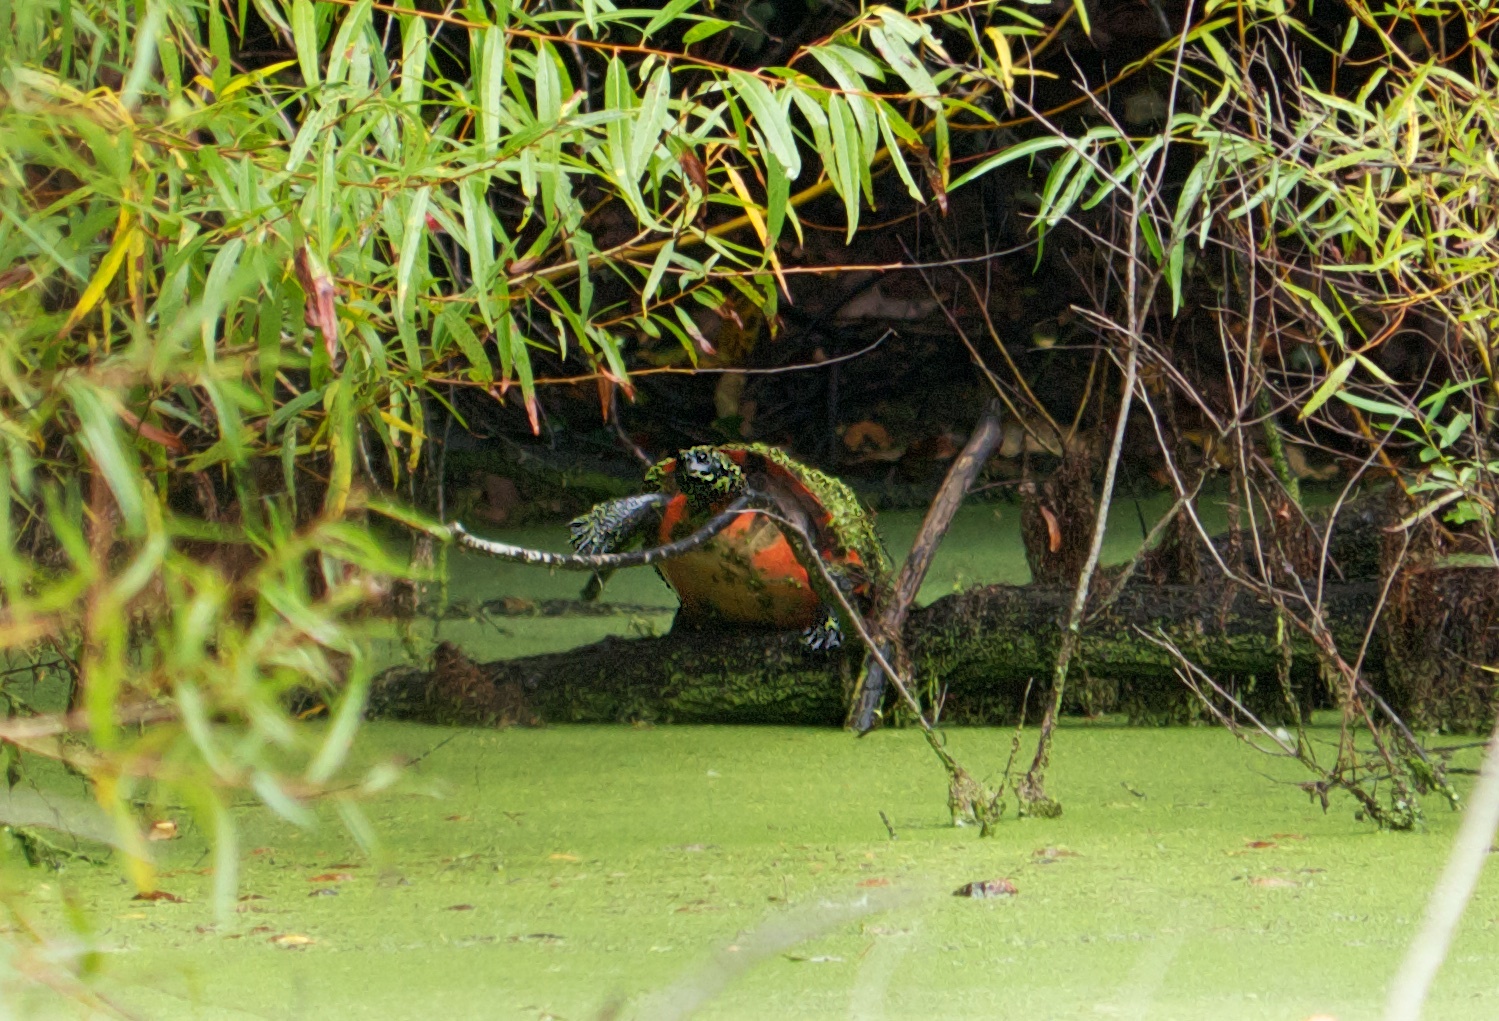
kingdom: Animalia
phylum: Chordata
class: Testudines
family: Emydidae
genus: Pseudemys
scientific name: Pseudemys rubriventris
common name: American red-bellied turtle
